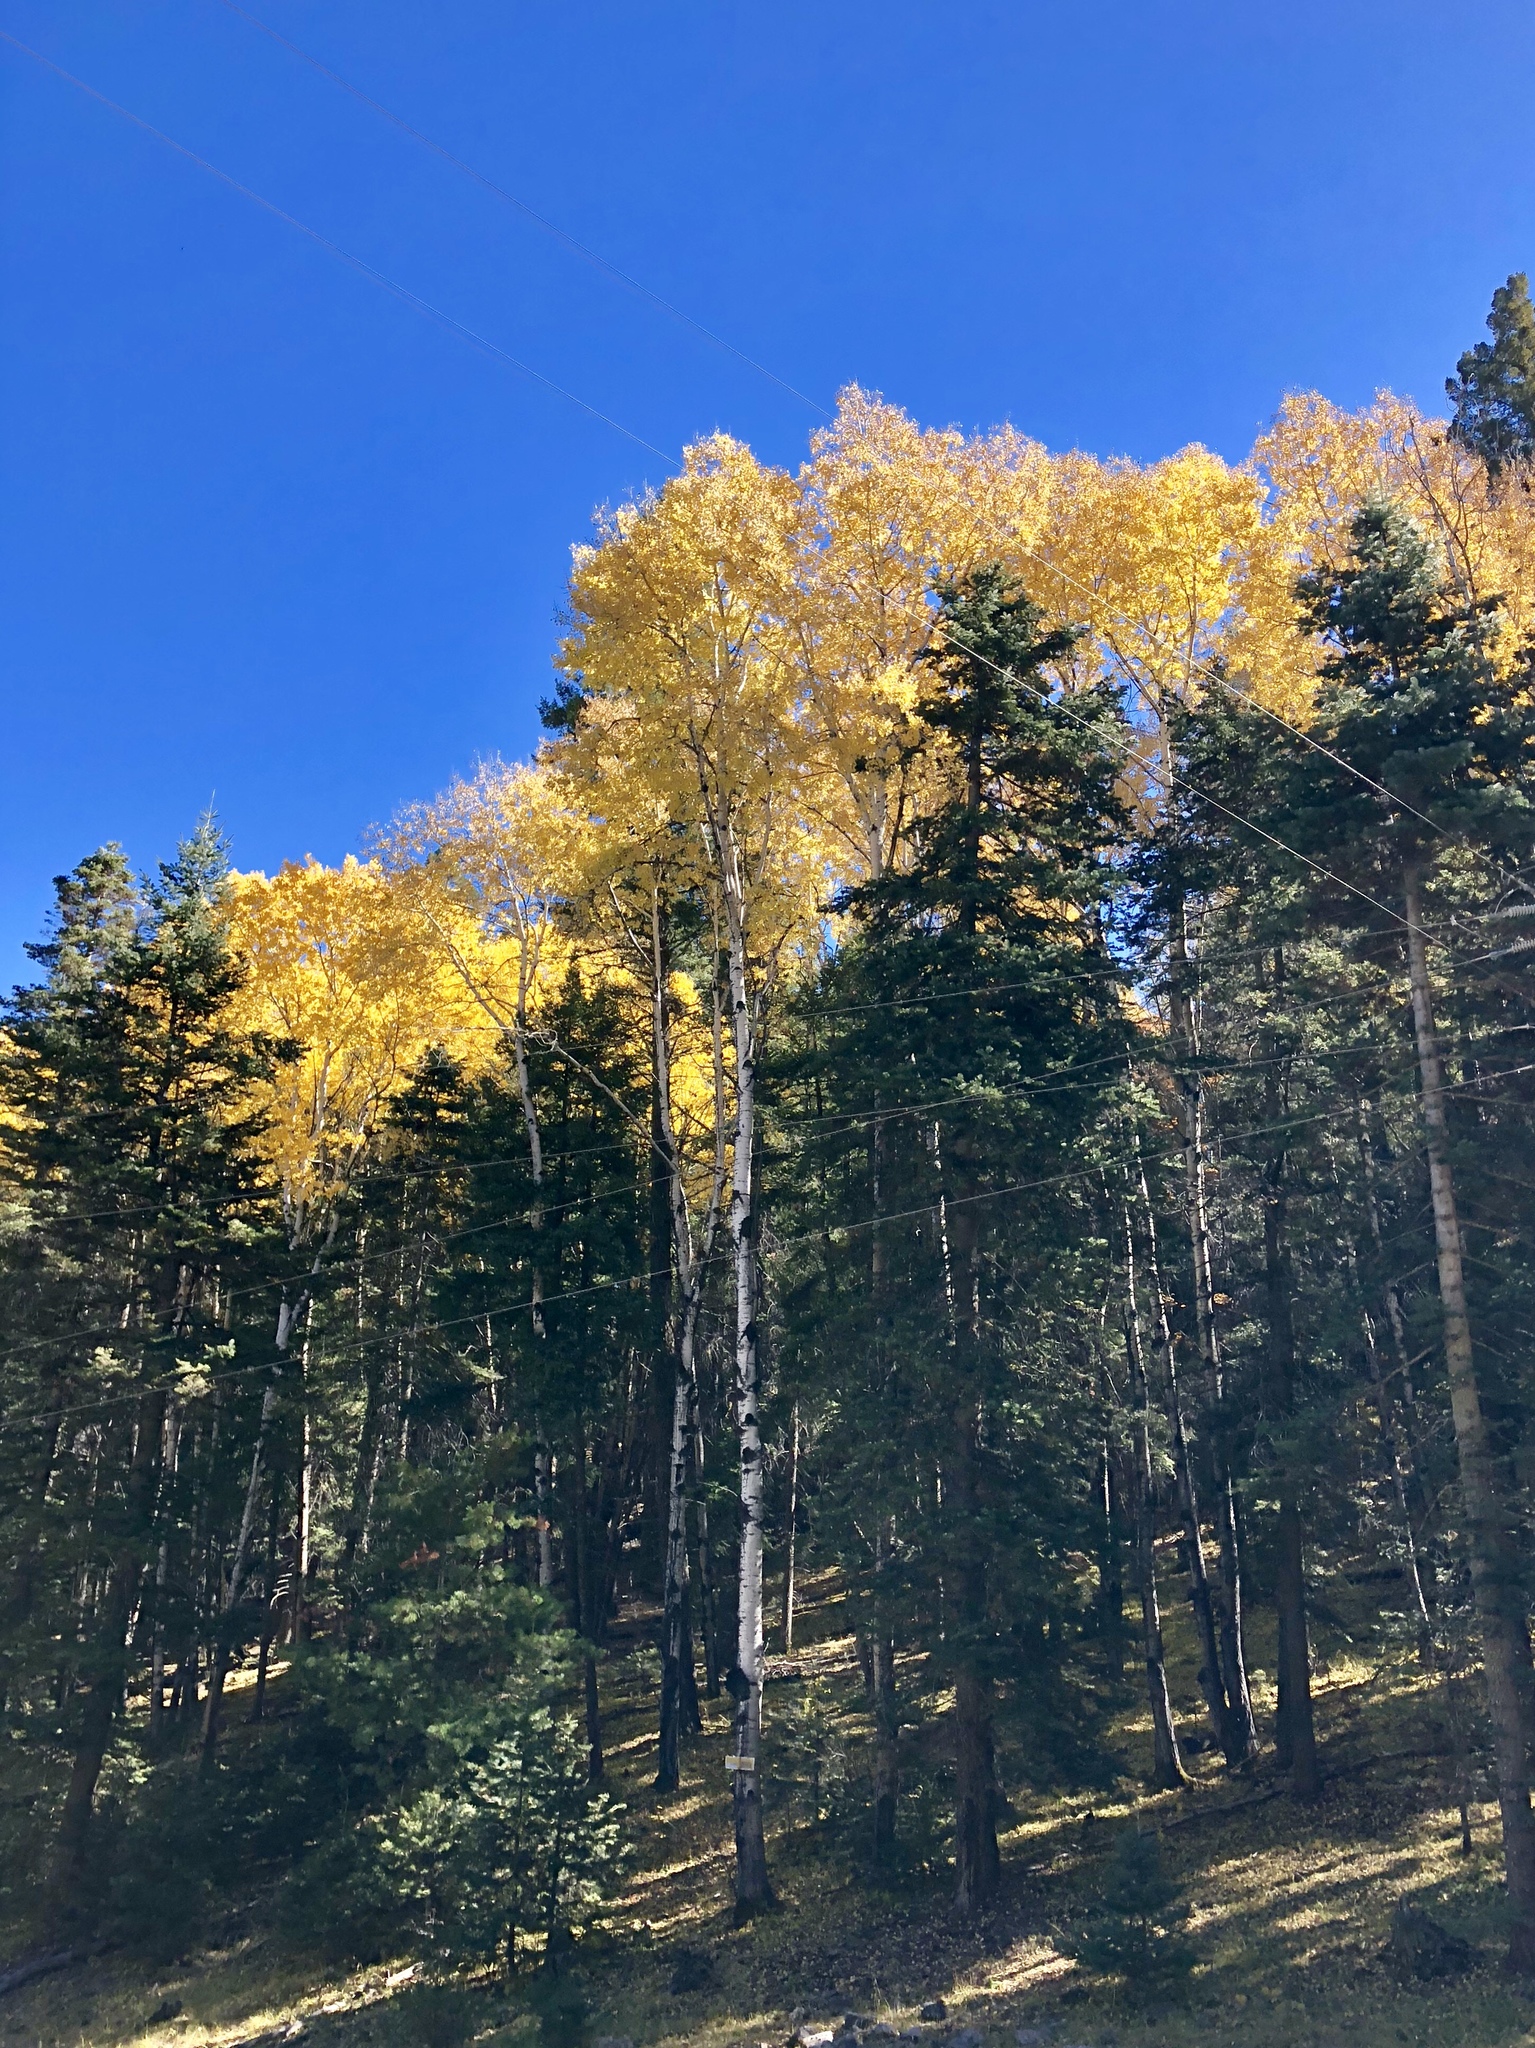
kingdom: Plantae
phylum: Tracheophyta
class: Magnoliopsida
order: Malpighiales
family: Salicaceae
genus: Populus
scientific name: Populus tremuloides
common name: Quaking aspen
